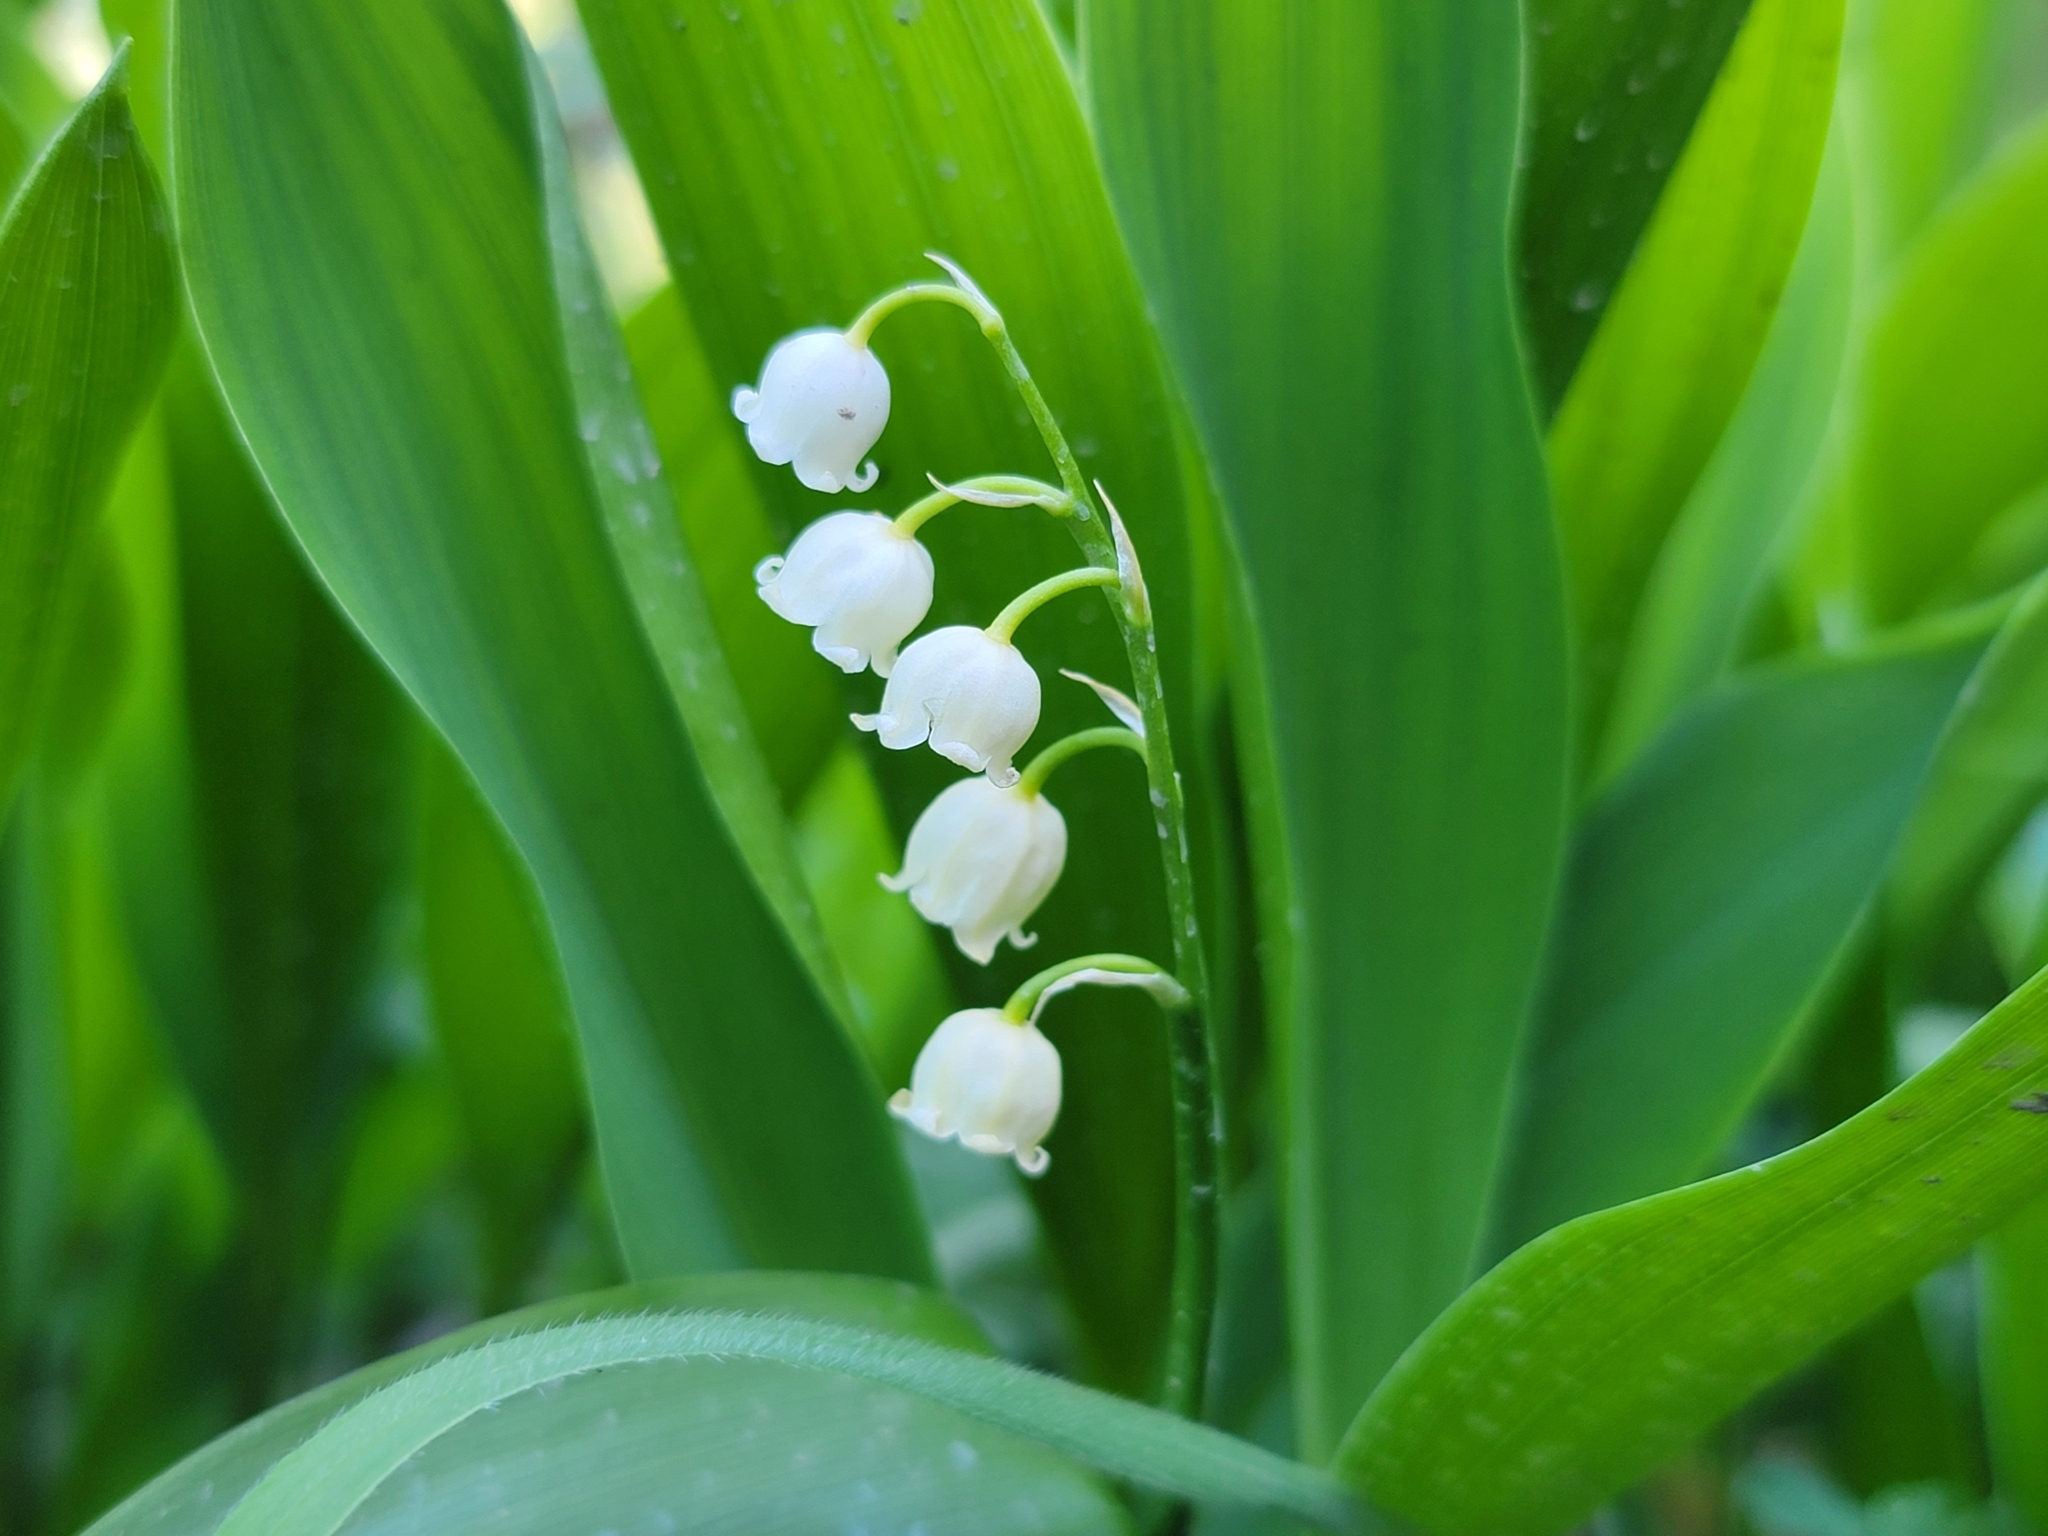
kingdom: Plantae
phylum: Tracheophyta
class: Liliopsida
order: Asparagales
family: Asparagaceae
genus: Convallaria
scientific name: Convallaria majalis
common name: Lily-of-the-valley
